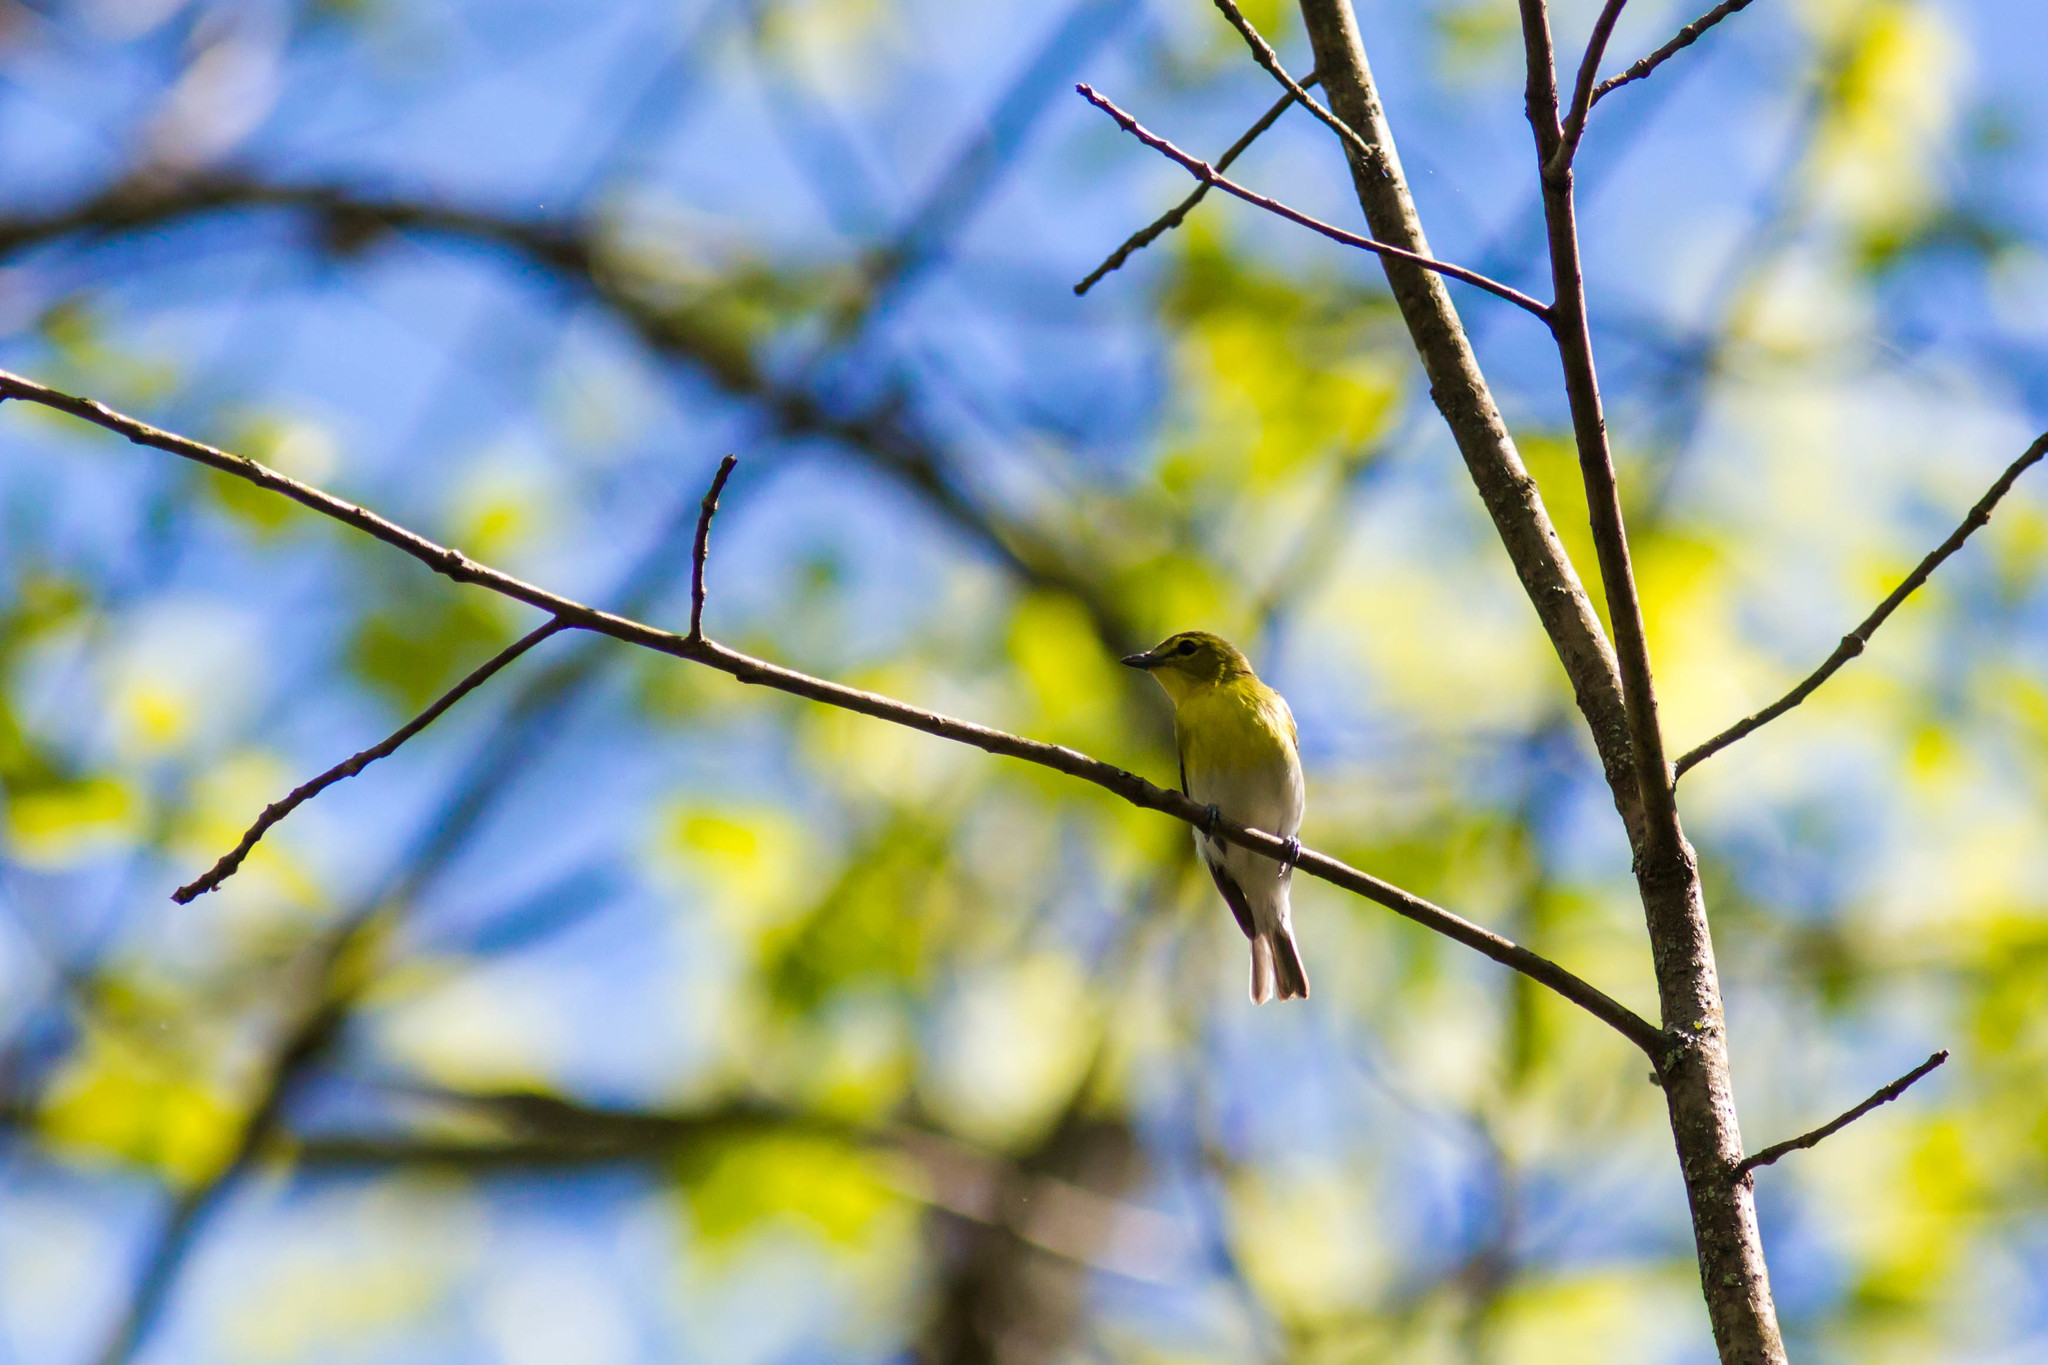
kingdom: Animalia
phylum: Chordata
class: Aves
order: Passeriformes
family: Vireonidae
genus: Vireo
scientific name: Vireo flavifrons
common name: Yellow-throated vireo
